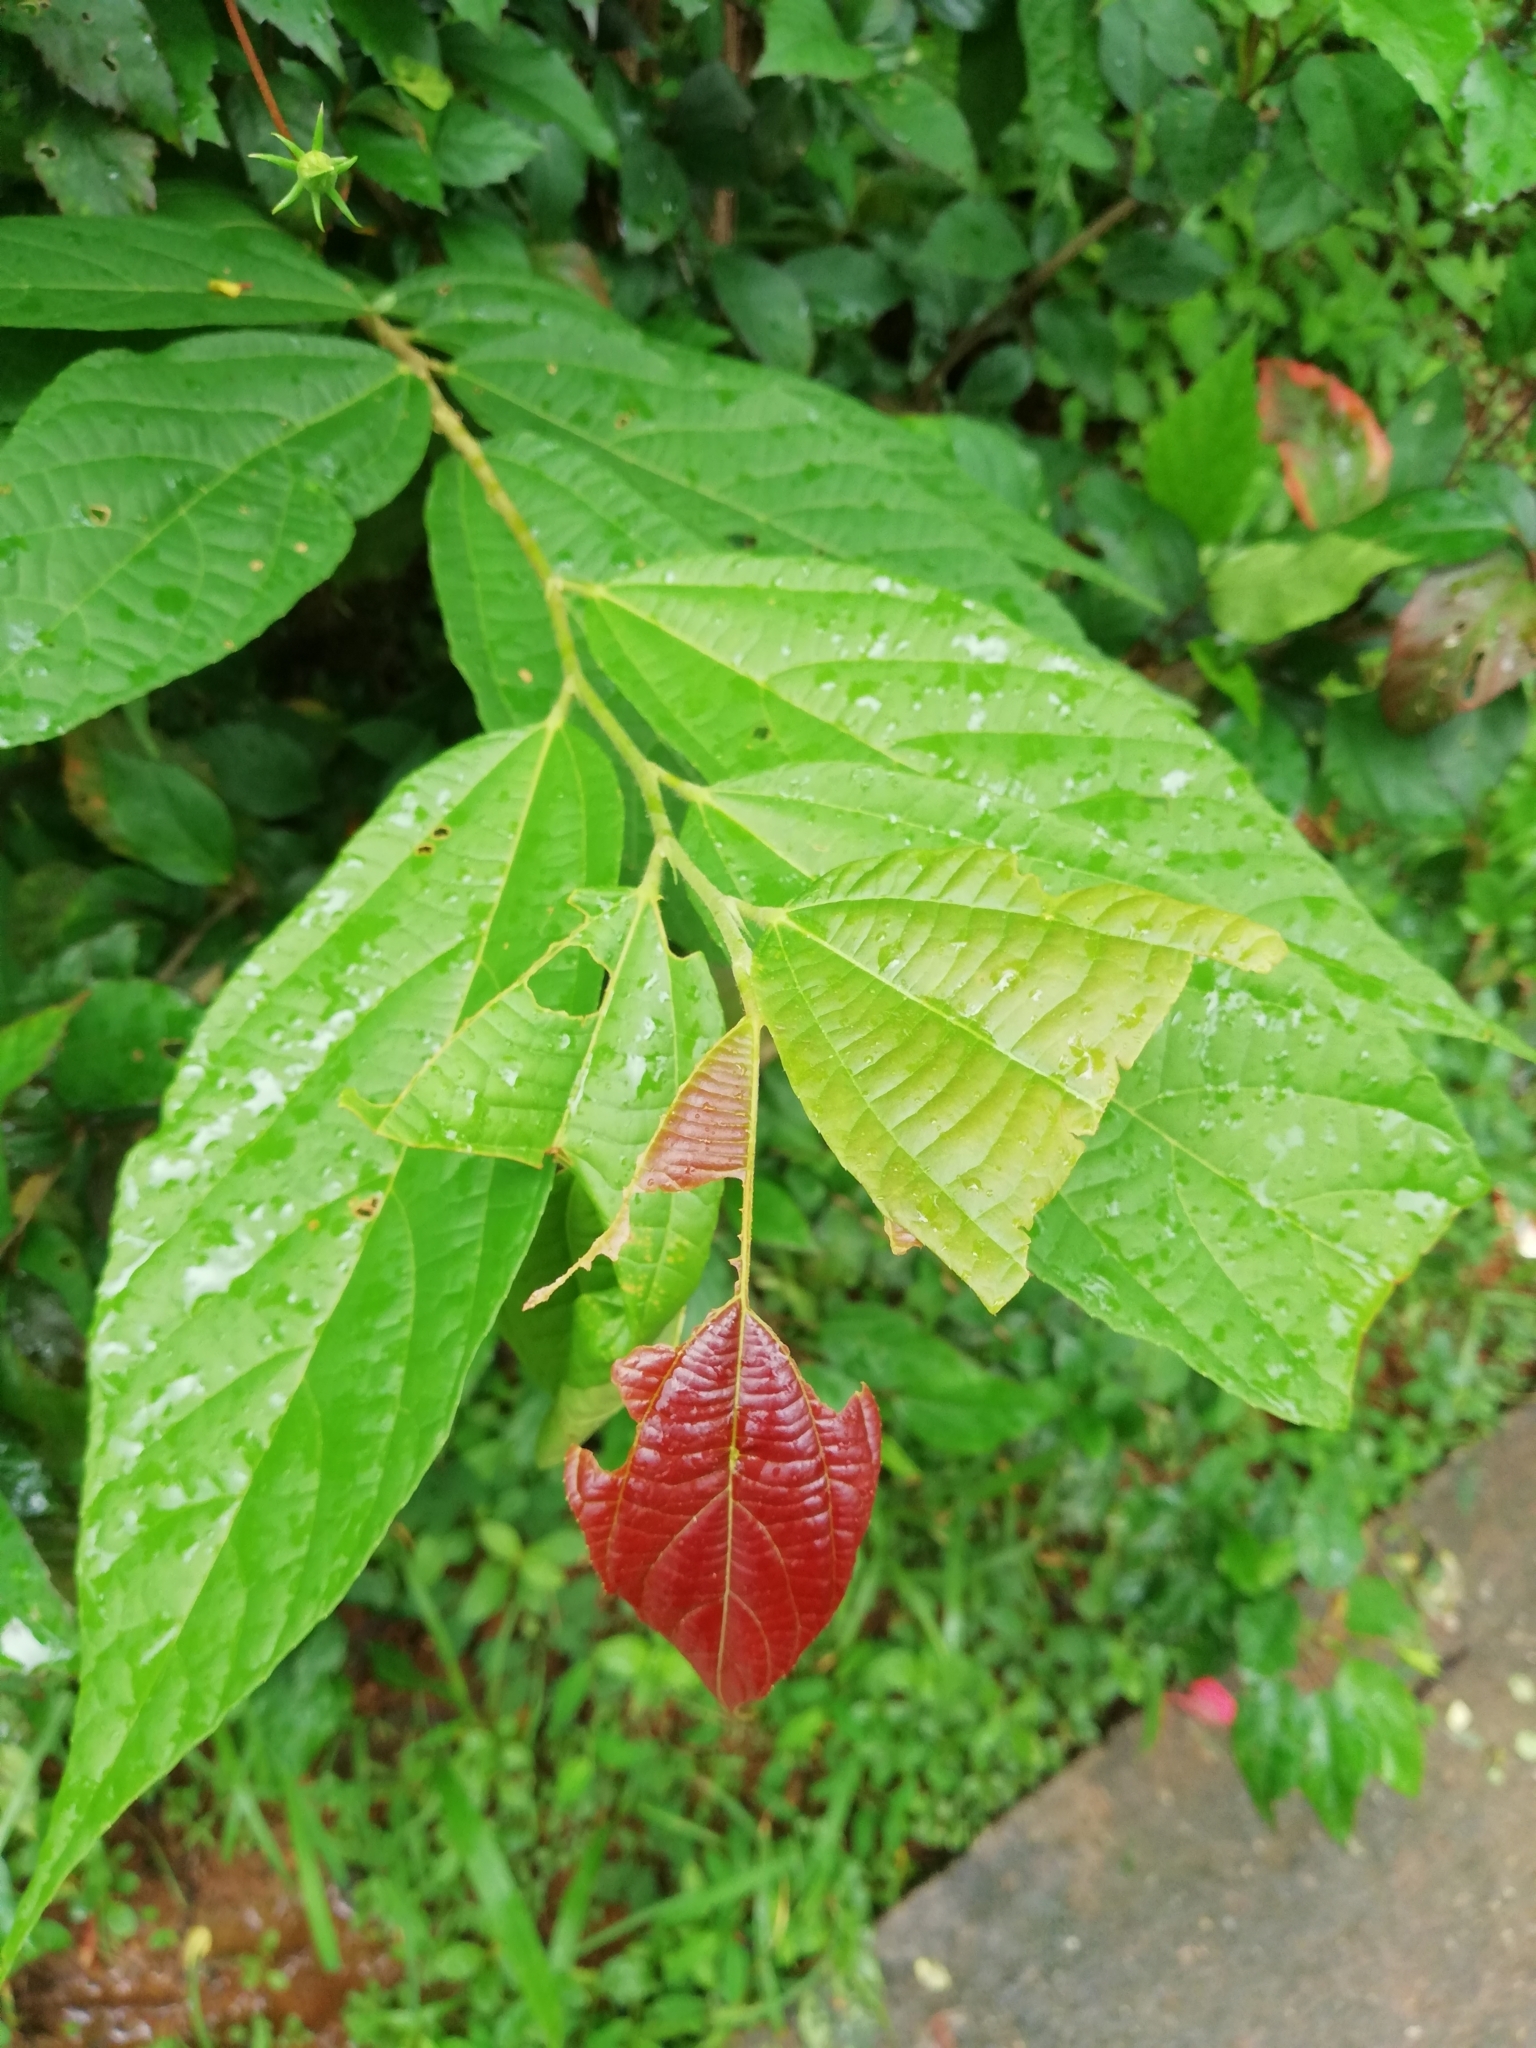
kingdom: Plantae
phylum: Tracheophyta
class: Magnoliopsida
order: Malvales
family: Malvaceae
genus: Microcos
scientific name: Microcos paniculata
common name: Microcos
